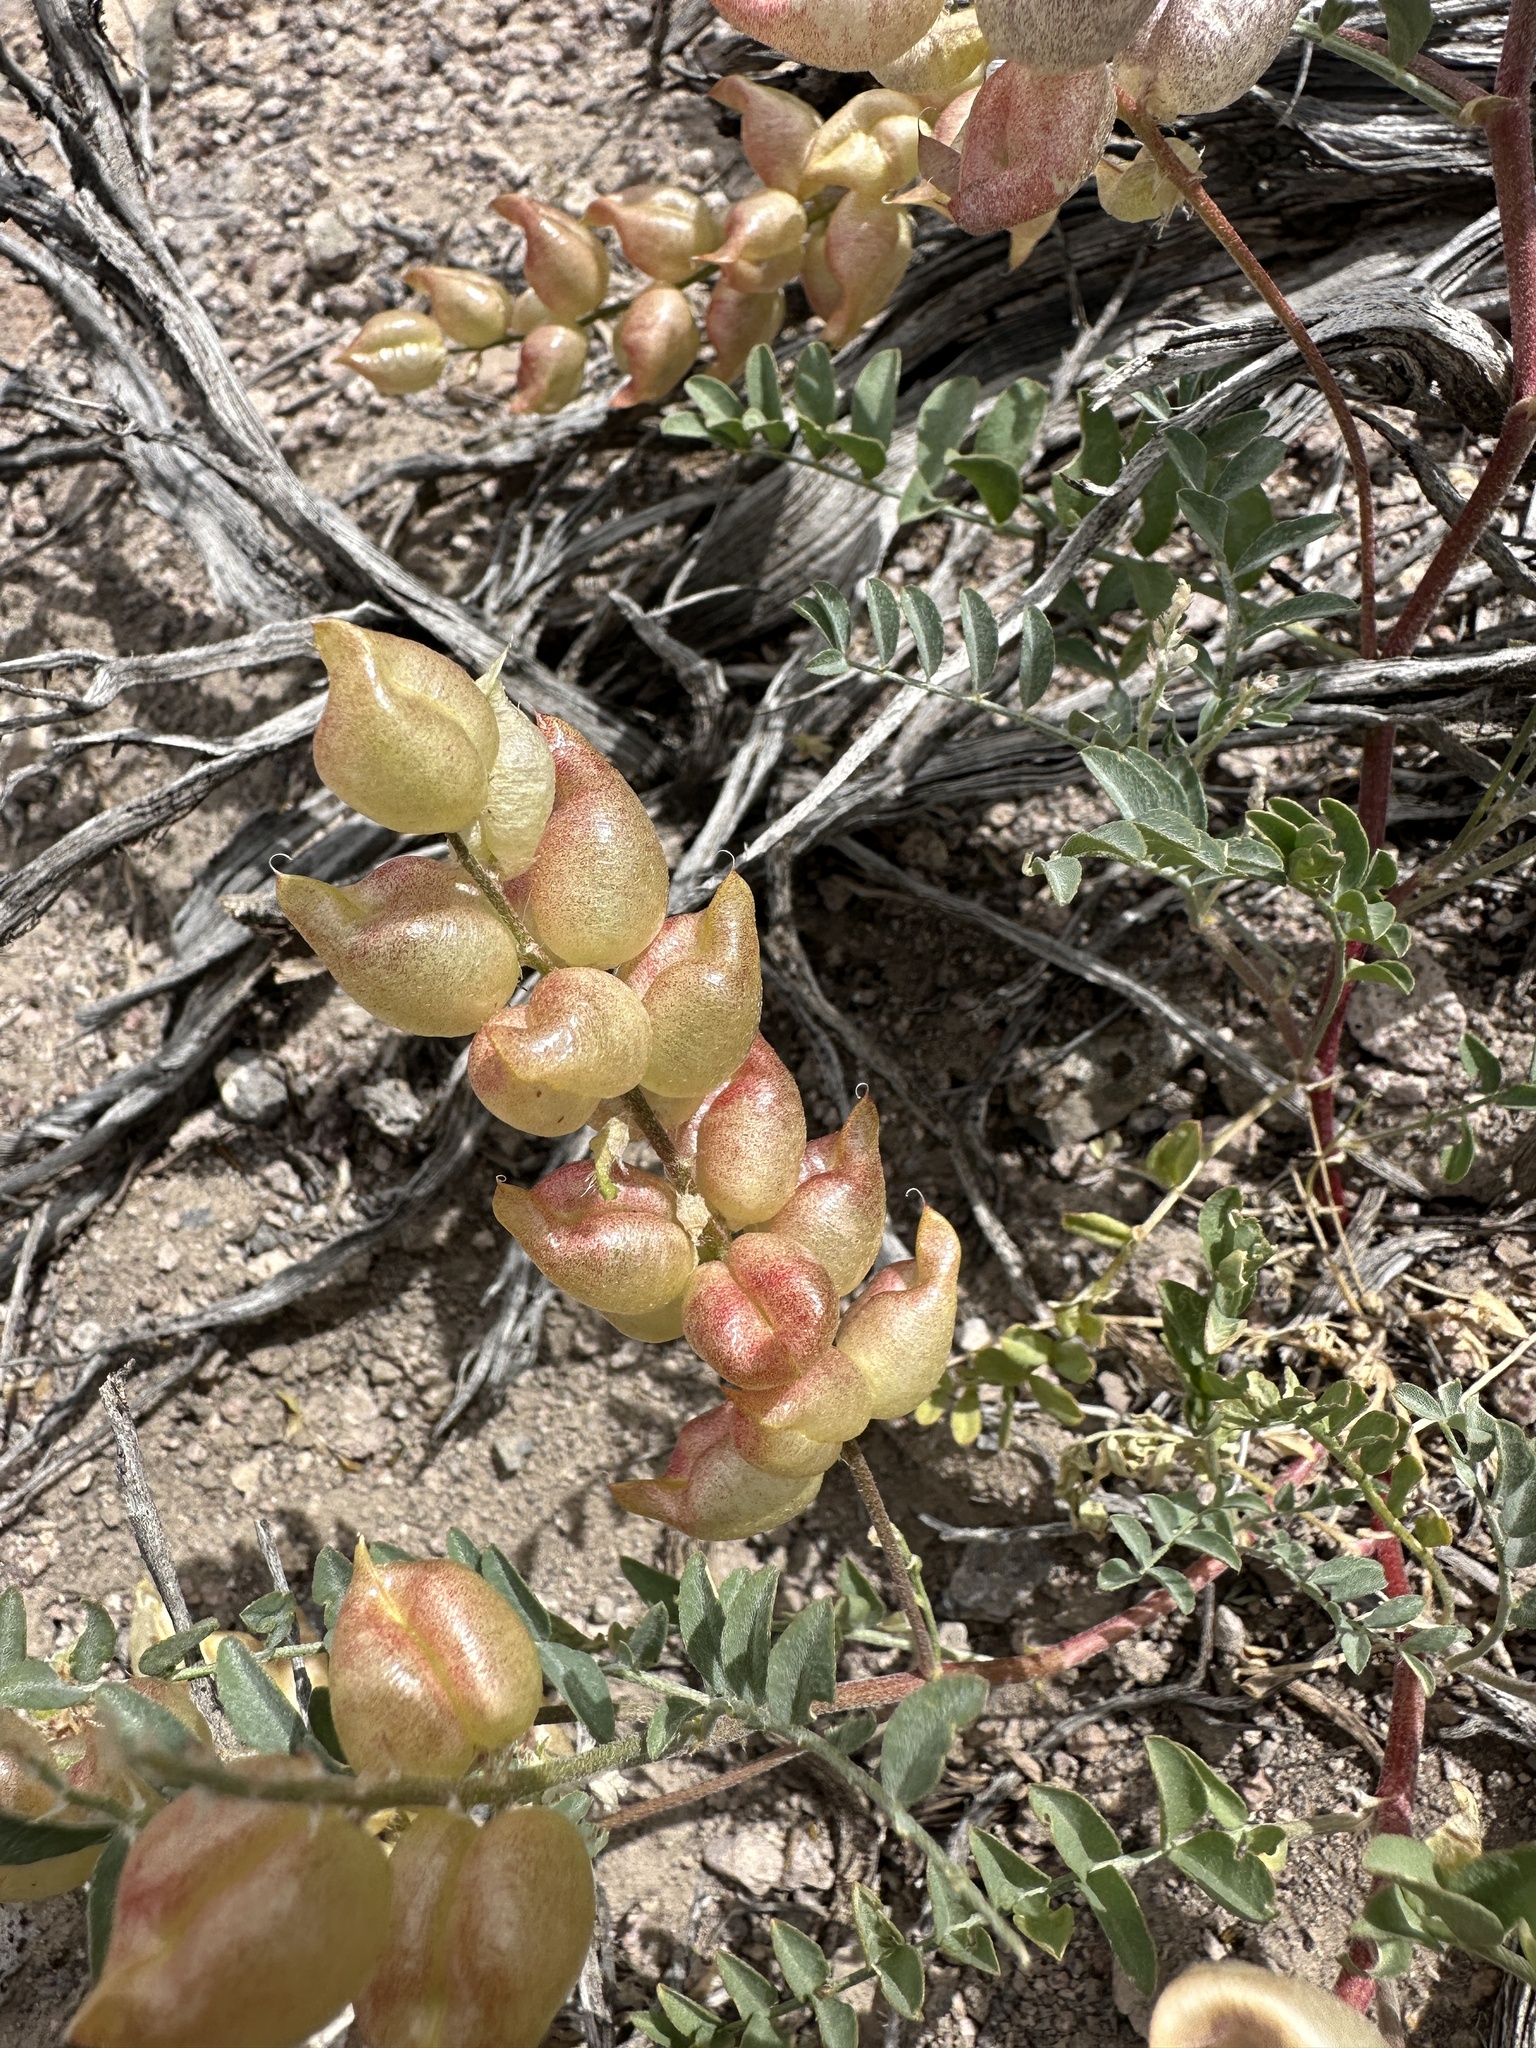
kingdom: Plantae
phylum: Tracheophyta
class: Magnoliopsida
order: Fabales
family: Fabaceae
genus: Astragalus
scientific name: Astragalus lentiginosus
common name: Freckled milkvetch
